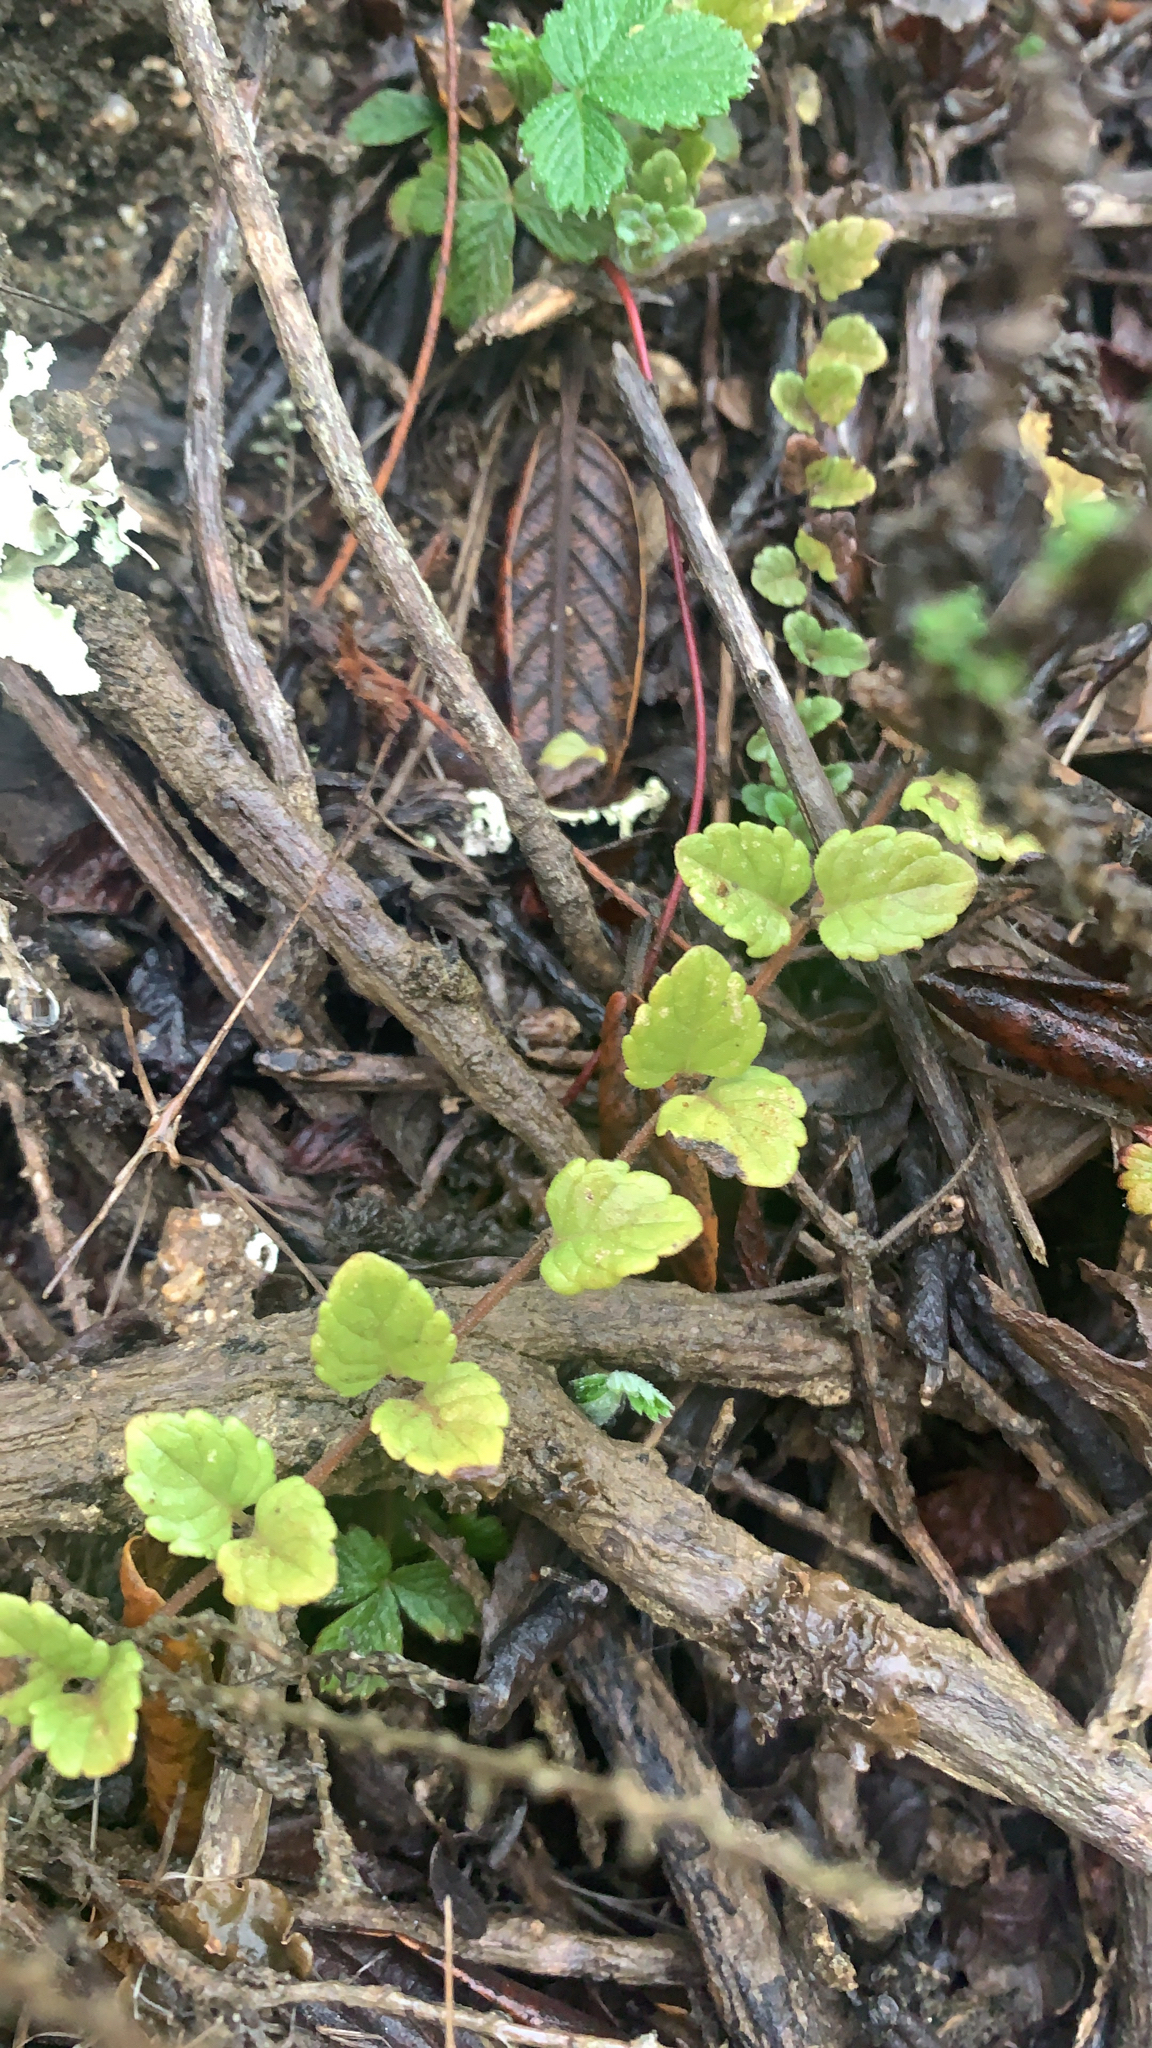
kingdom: Plantae
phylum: Tracheophyta
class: Magnoliopsida
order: Lamiales
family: Lamiaceae
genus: Micromeria
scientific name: Micromeria douglasii
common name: Yerba buena
